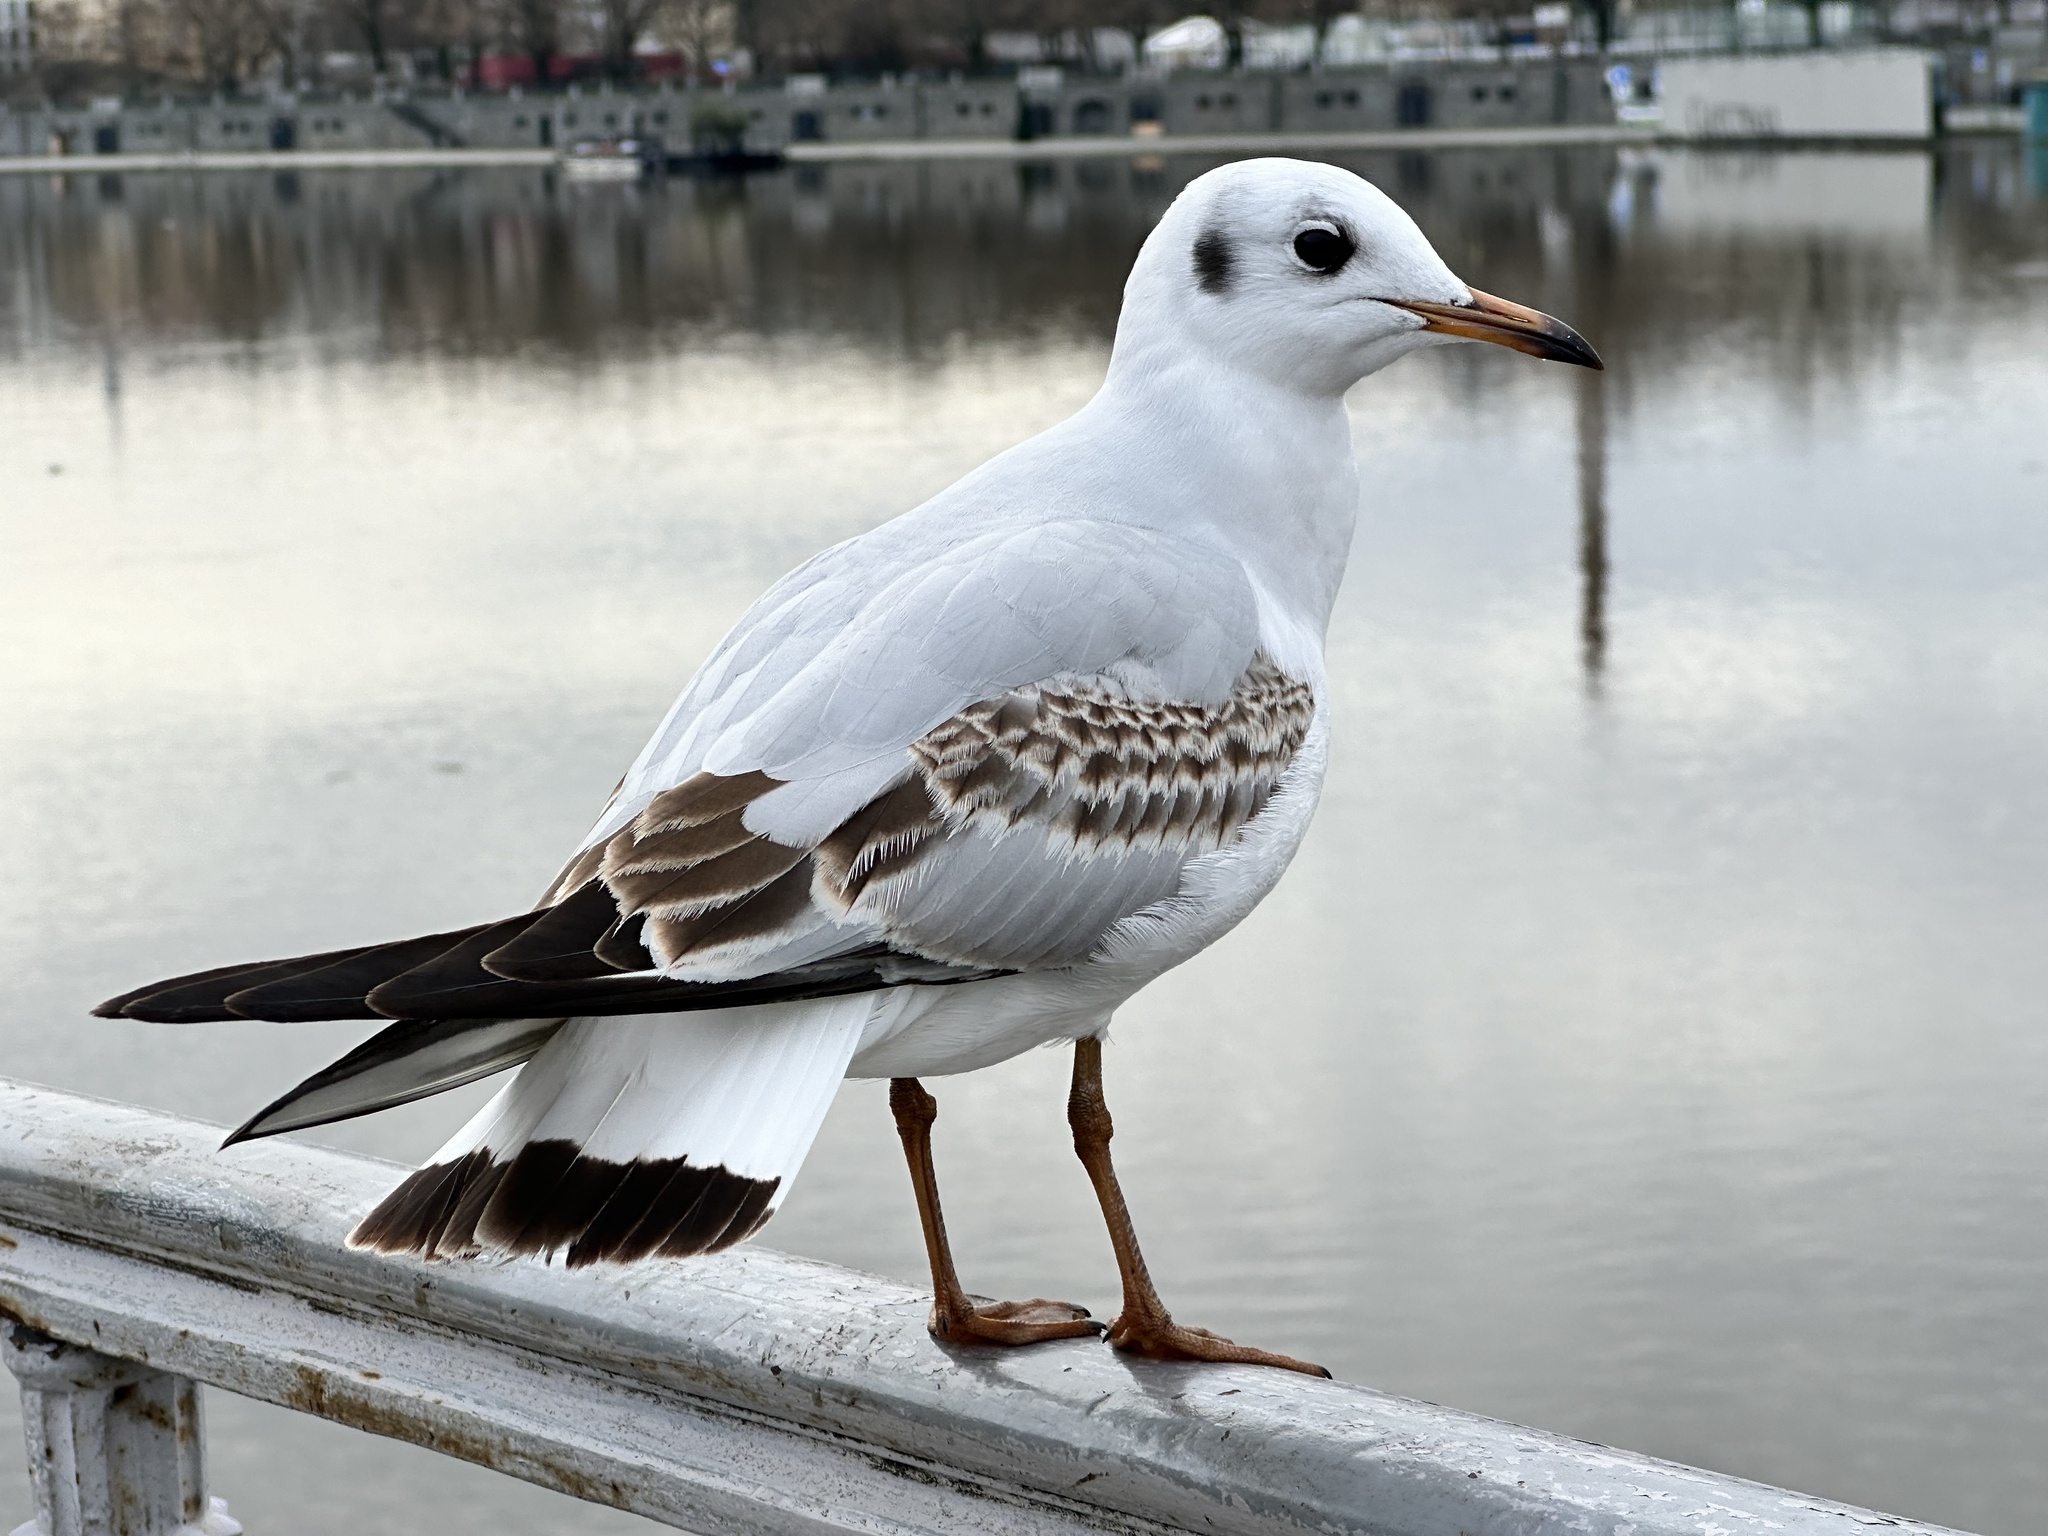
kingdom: Animalia
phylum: Chordata
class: Aves
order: Charadriiformes
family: Laridae
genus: Chroicocephalus
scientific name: Chroicocephalus ridibundus
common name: Black-headed gull
